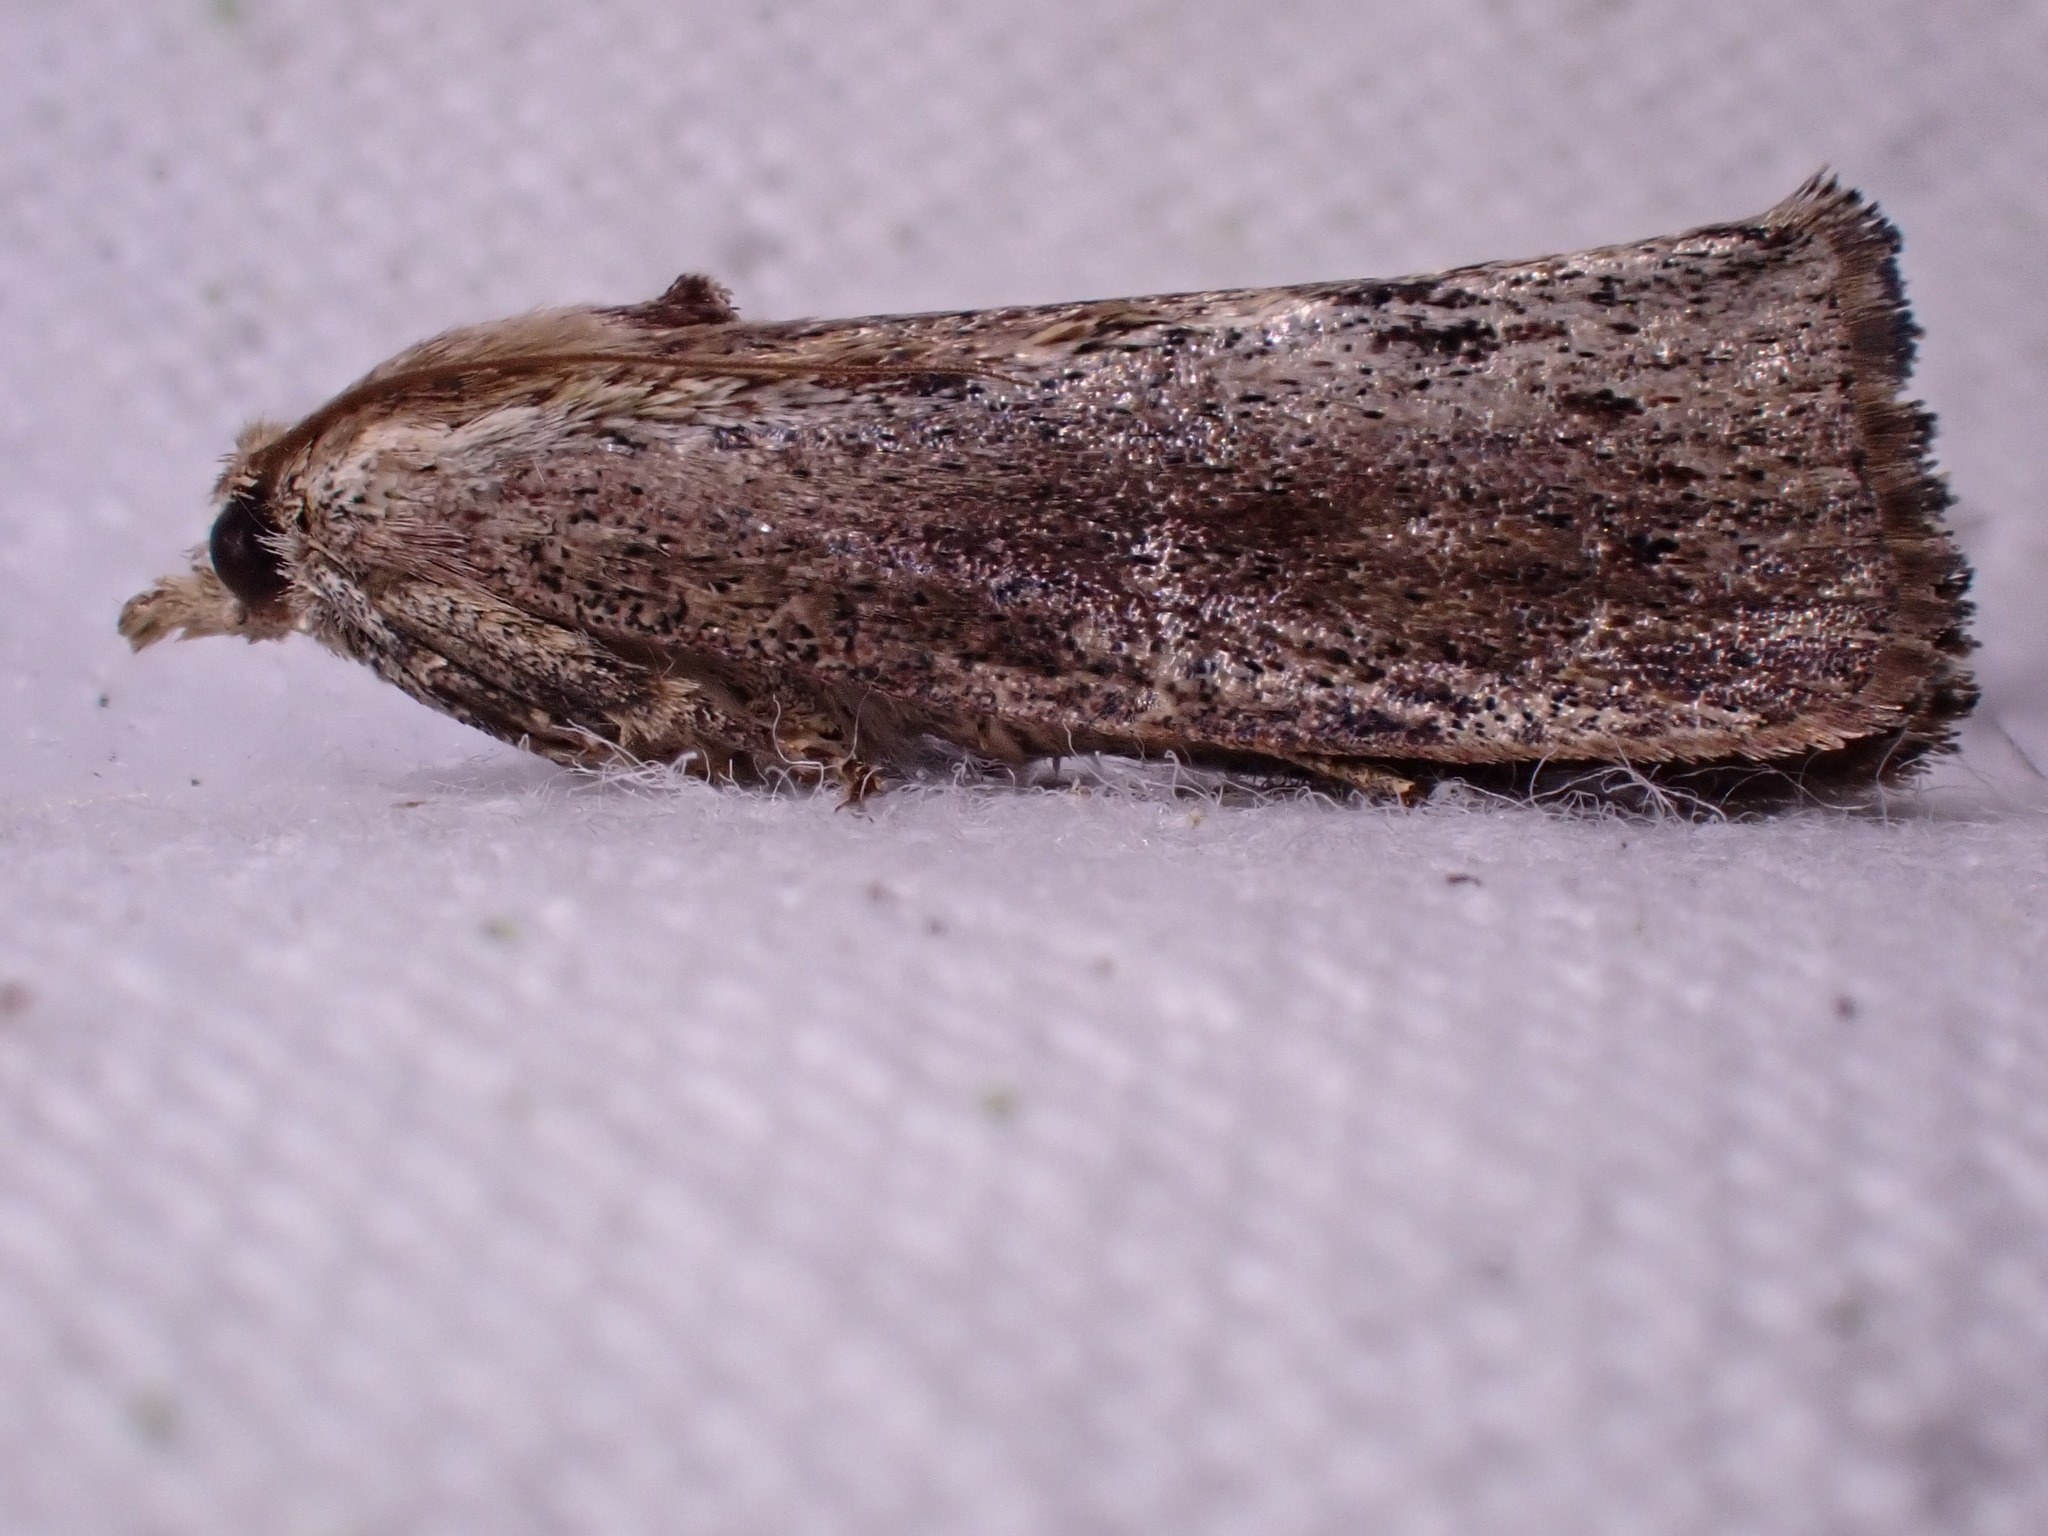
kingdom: Animalia
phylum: Arthropoda
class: Insecta
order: Lepidoptera
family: Pyralidae
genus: Galleria
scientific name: Galleria mellonella
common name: Greater wax moth
